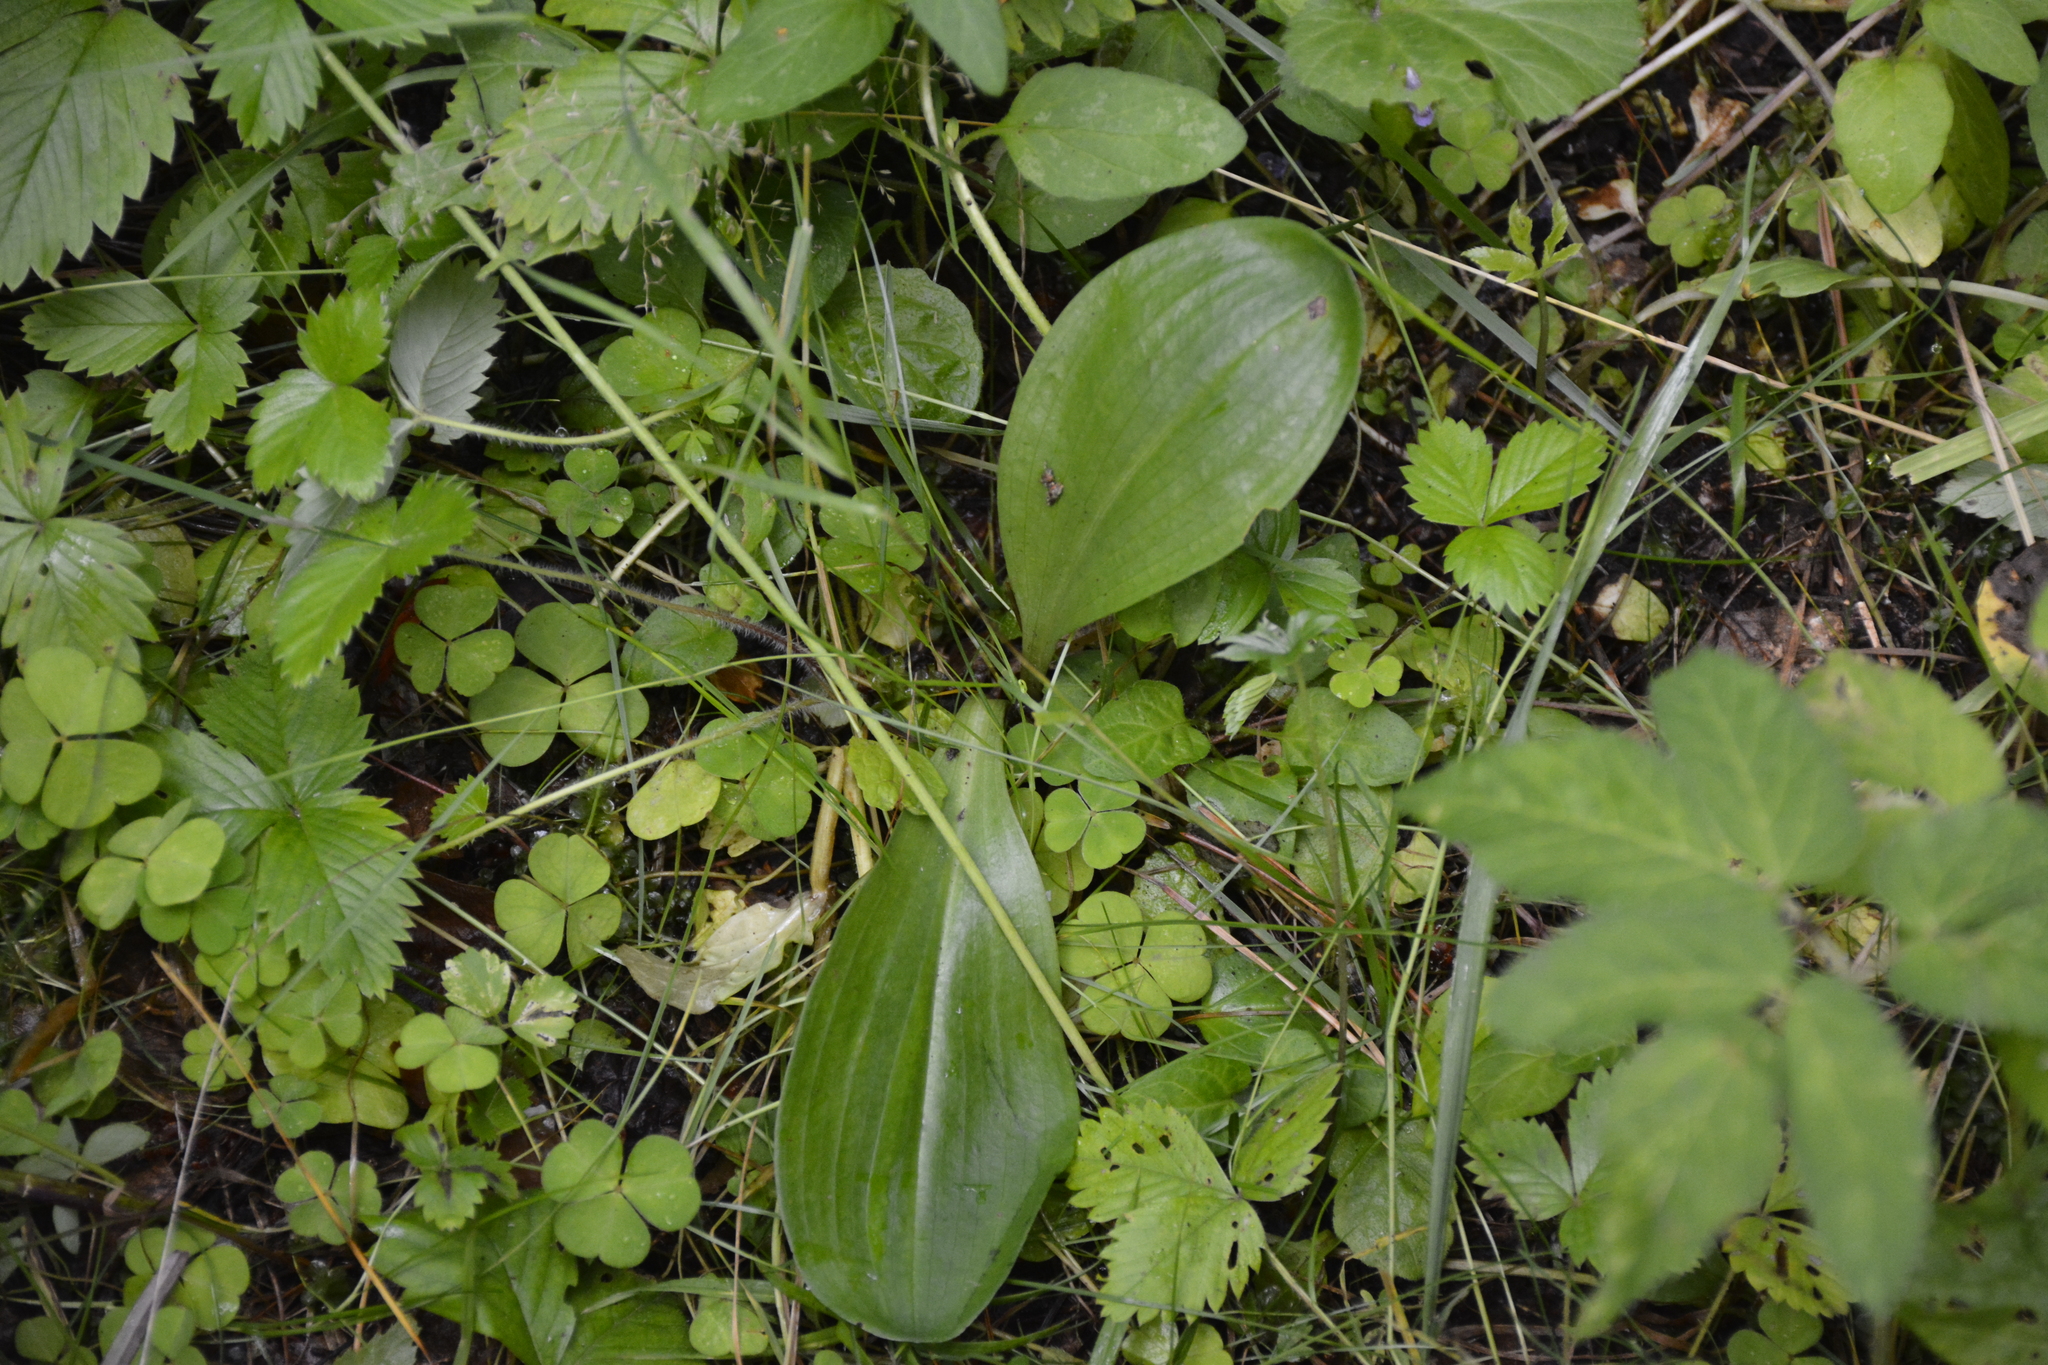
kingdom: Plantae
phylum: Tracheophyta
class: Liliopsida
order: Asparagales
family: Orchidaceae
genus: Platanthera
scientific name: Platanthera
